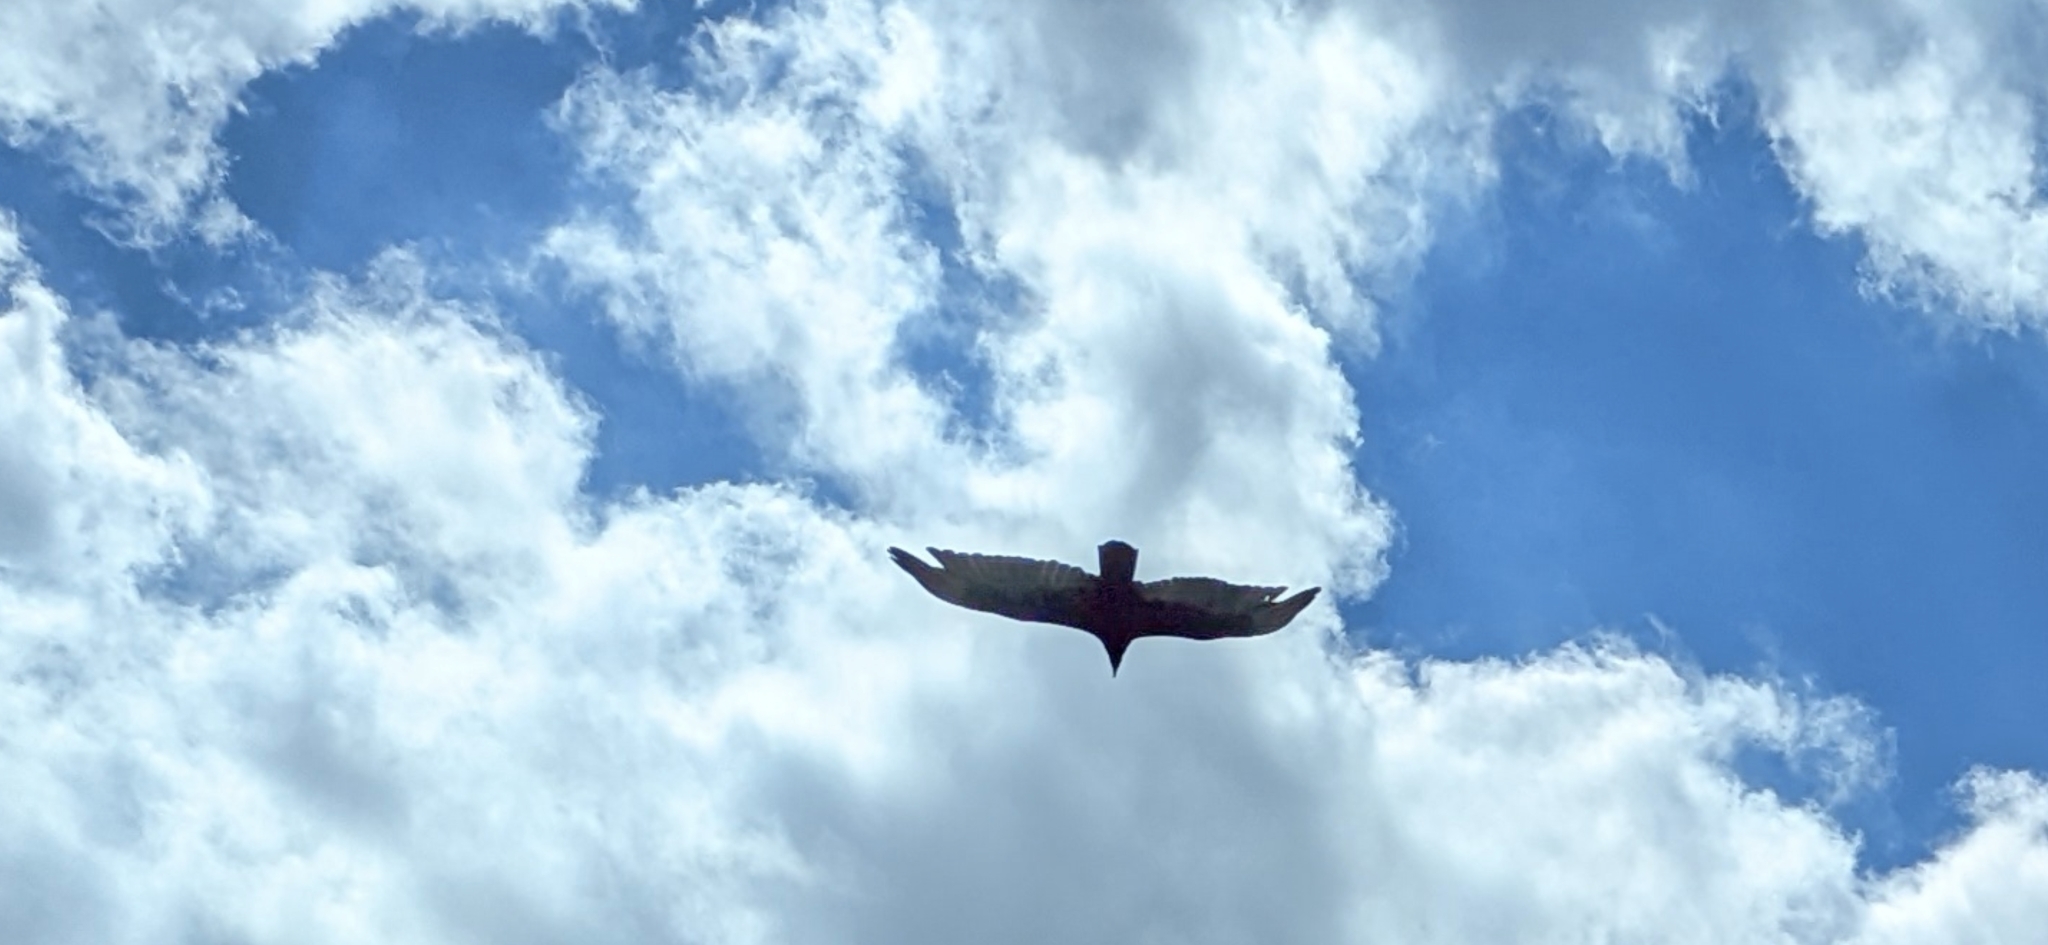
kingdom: Animalia
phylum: Chordata
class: Aves
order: Accipitriformes
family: Cathartidae
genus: Cathartes
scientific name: Cathartes aura
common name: Turkey vulture
